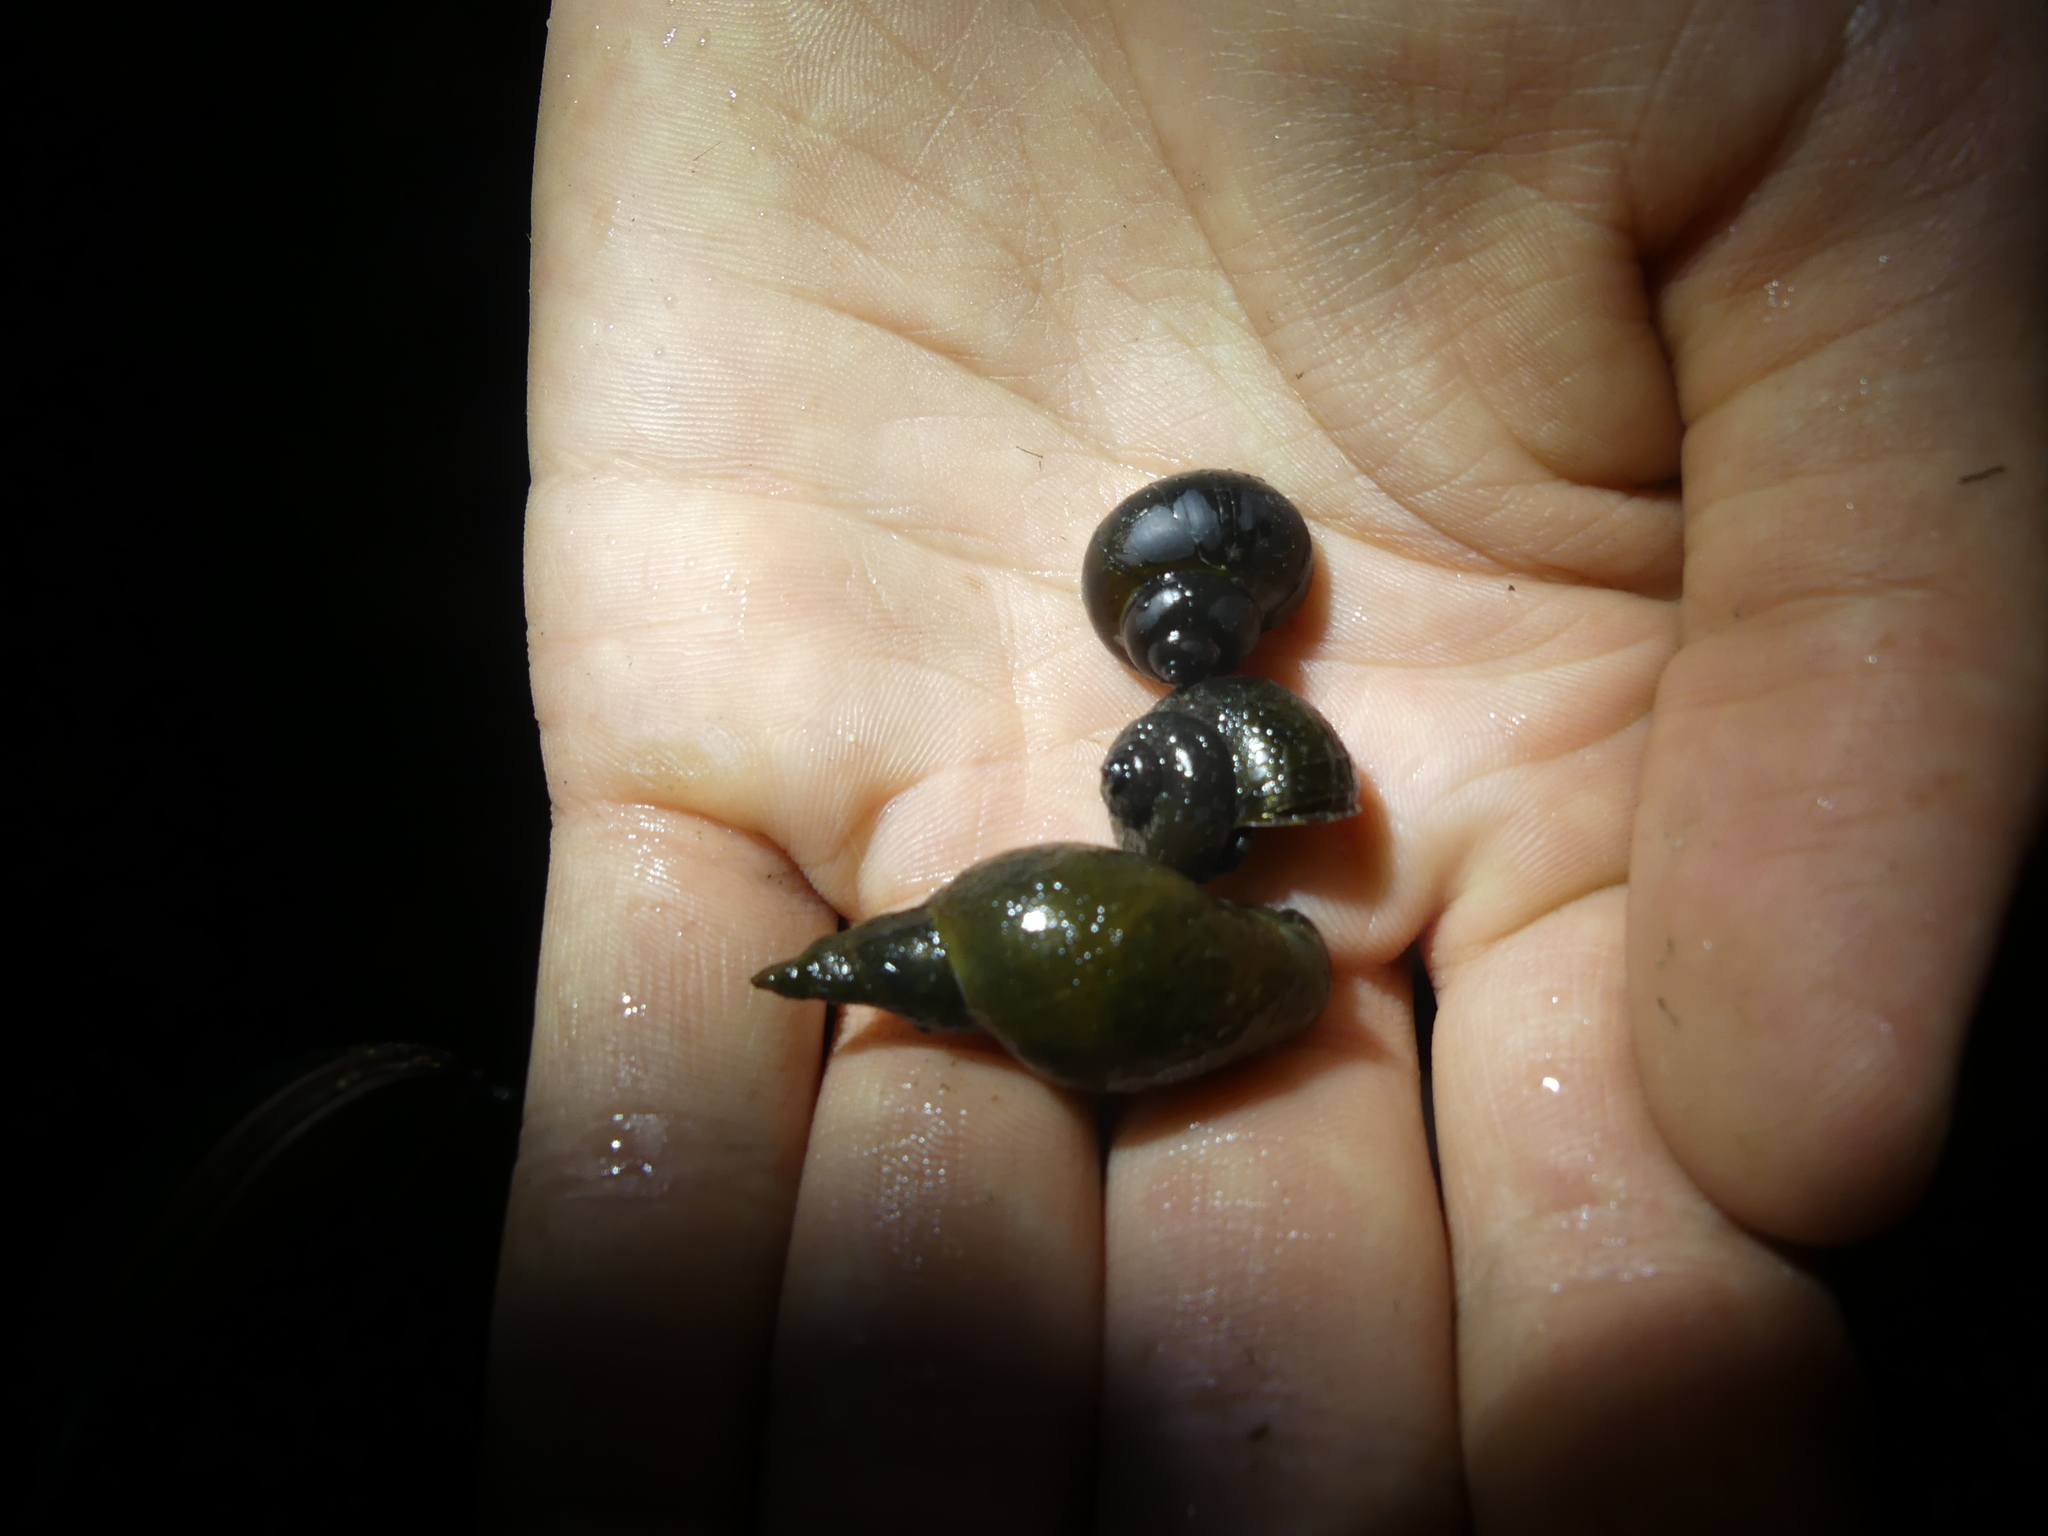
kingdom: Animalia
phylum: Mollusca
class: Gastropoda
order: Architaenioglossa
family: Viviparidae
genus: Viviparus
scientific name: Viviparus contectus
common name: Lister's river snail
